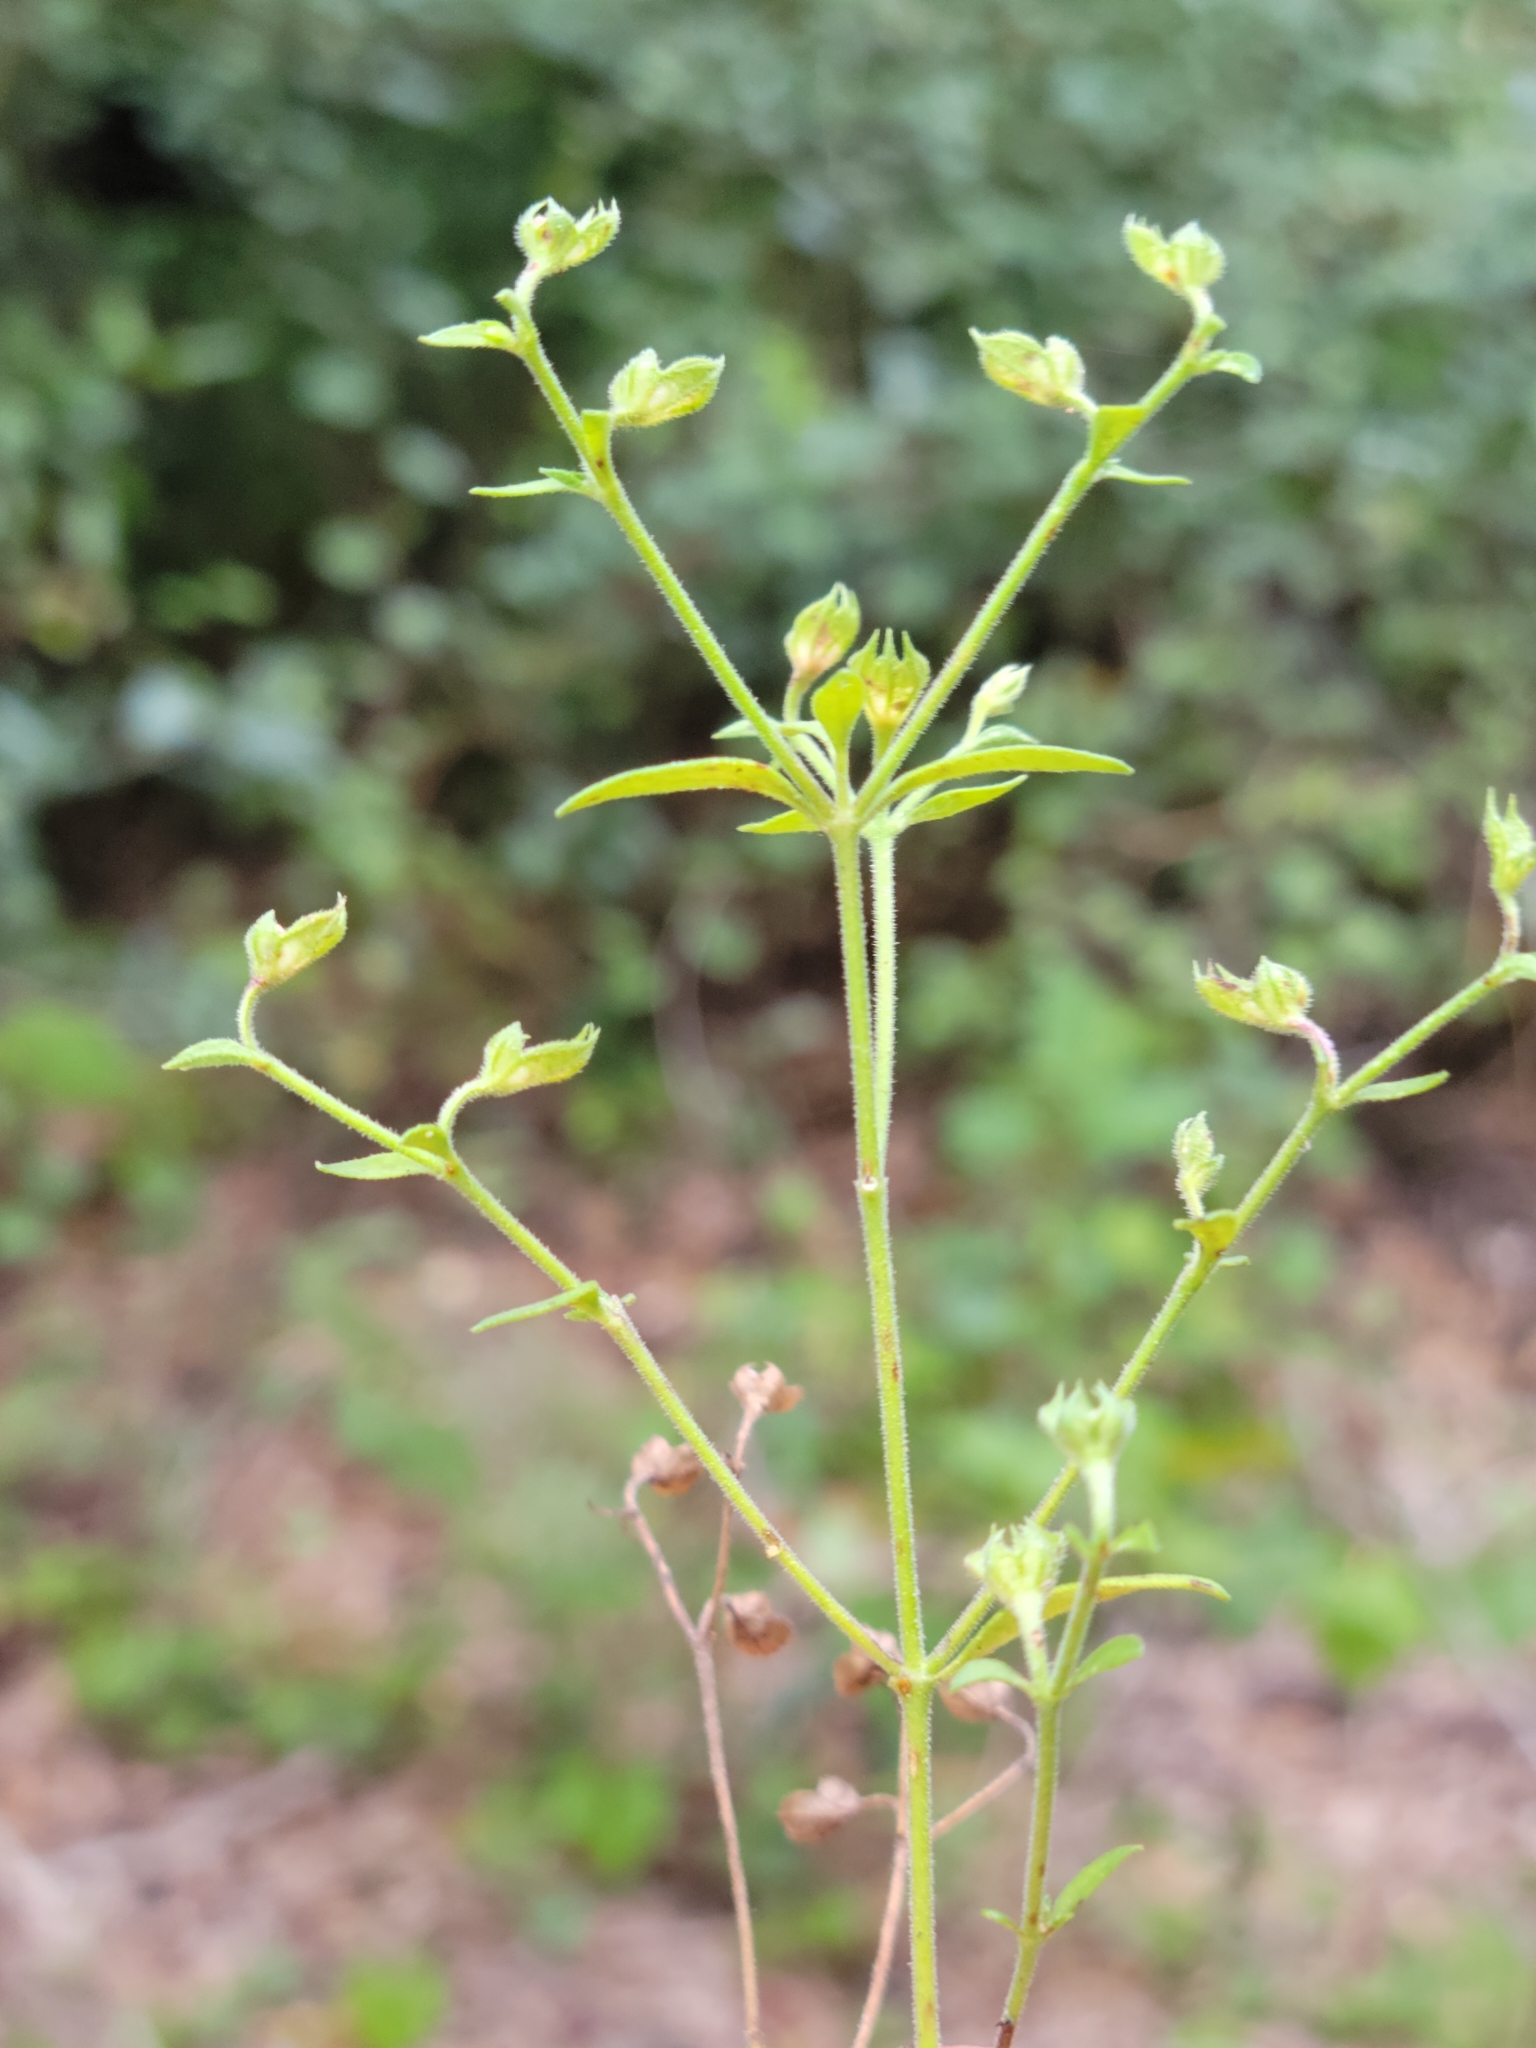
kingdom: Plantae
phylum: Tracheophyta
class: Magnoliopsida
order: Lamiales
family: Lamiaceae
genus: Trichostema
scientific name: Trichostema fruticosum
